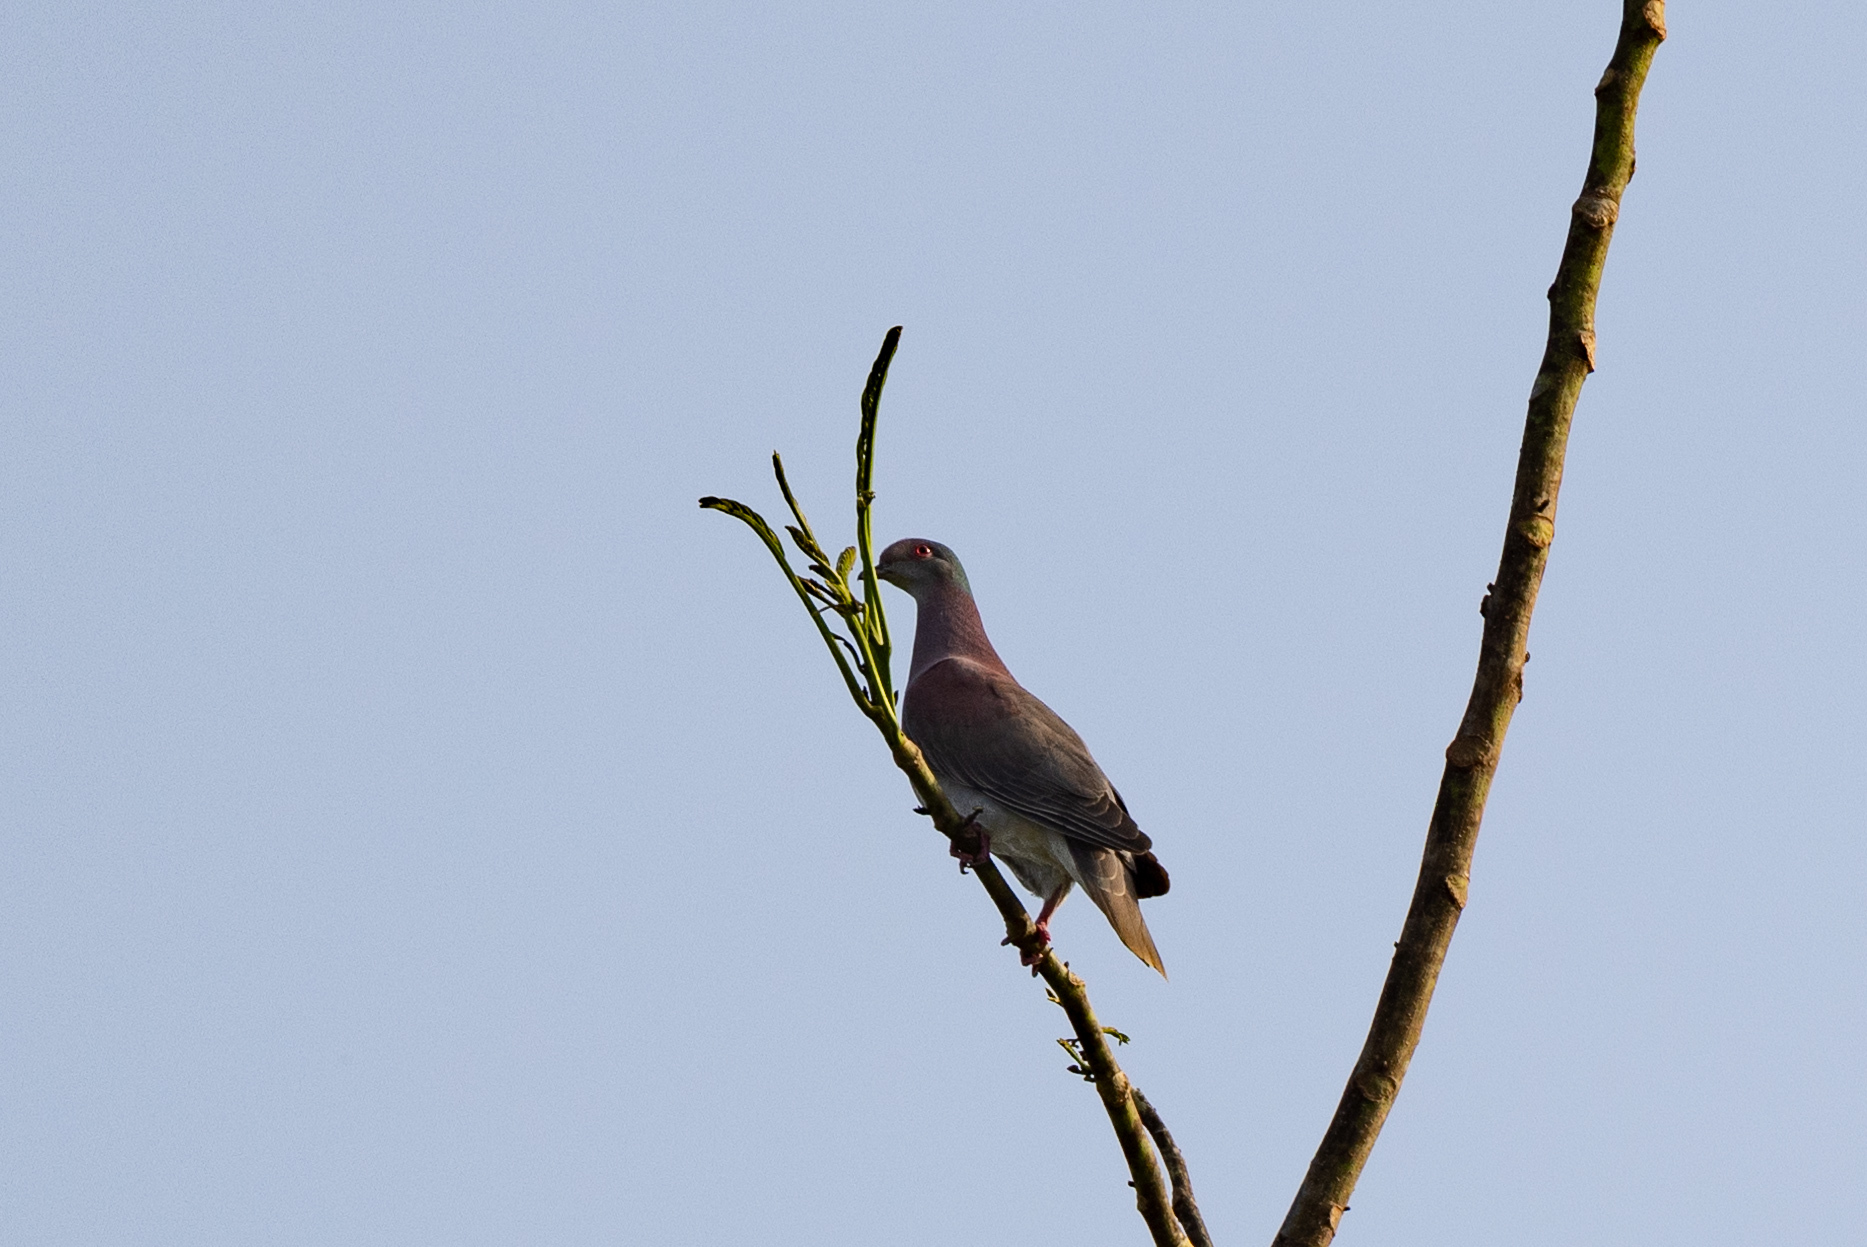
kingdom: Animalia
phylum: Chordata
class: Aves
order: Columbiformes
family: Columbidae
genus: Patagioenas
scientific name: Patagioenas cayennensis
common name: Pale-vented pigeon
